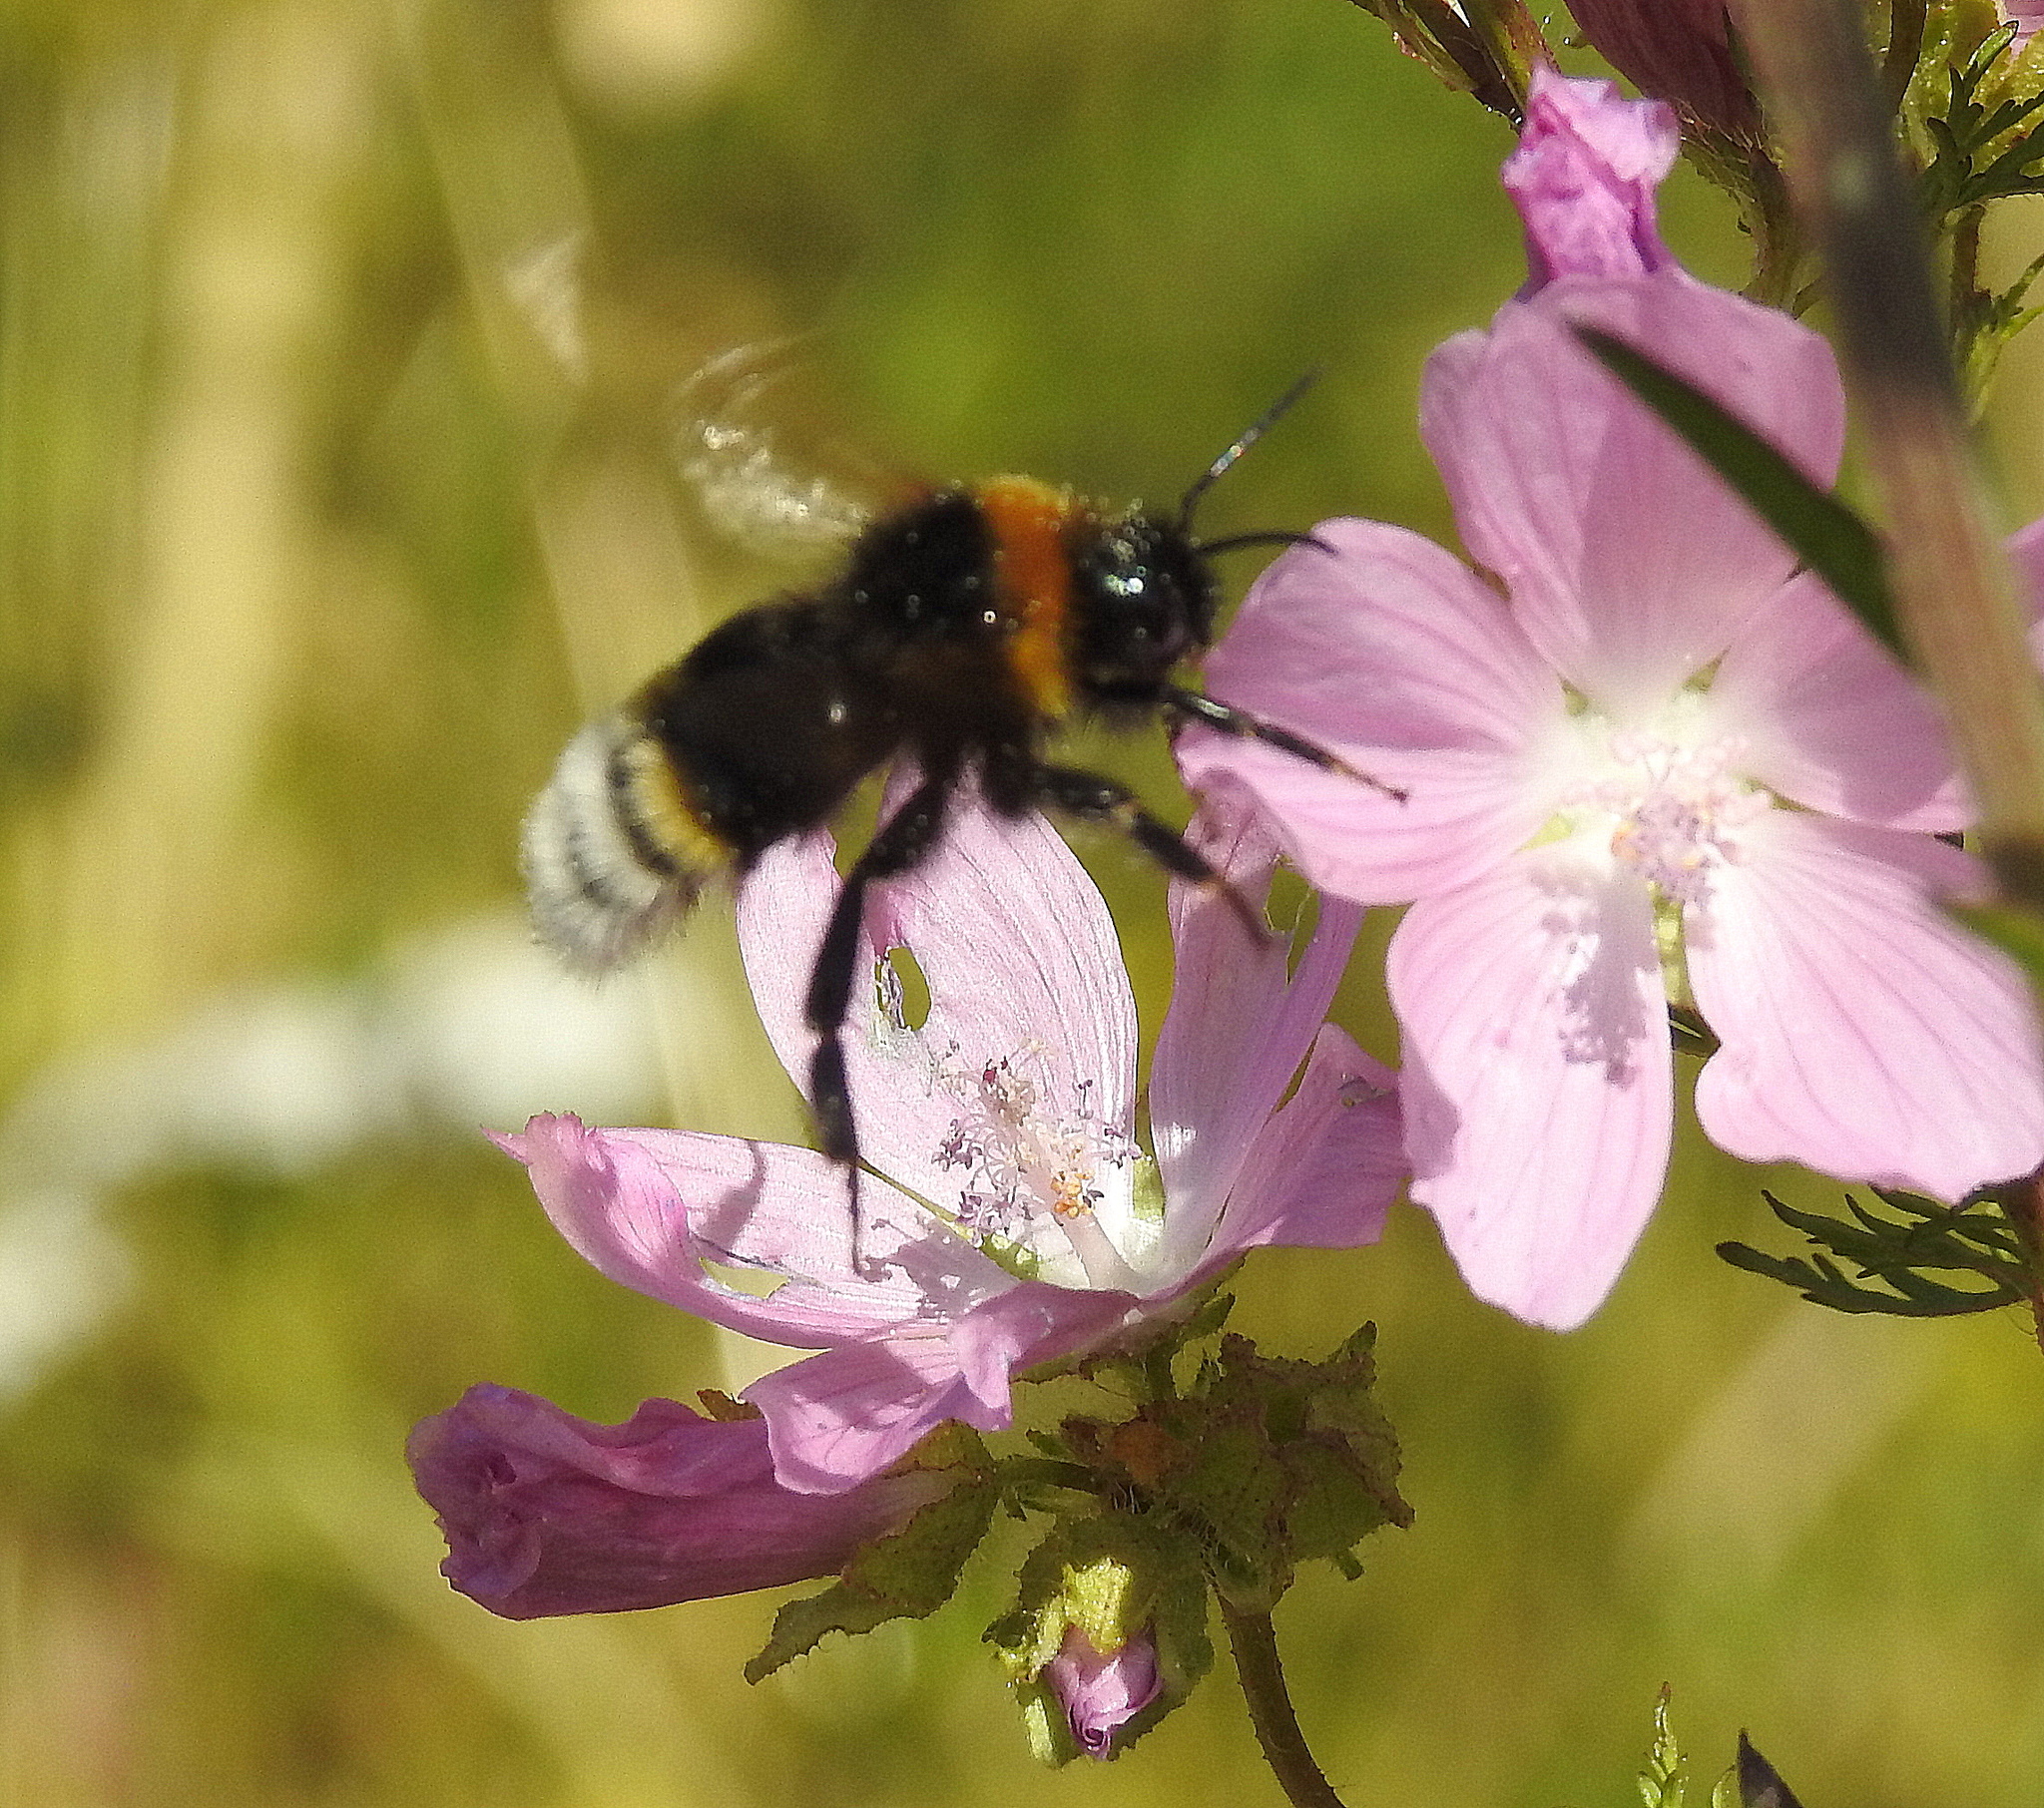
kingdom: Animalia
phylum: Arthropoda
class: Insecta
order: Hymenoptera
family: Apidae
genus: Bombus
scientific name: Bombus vestalis
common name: Vestal cuckoo bee
